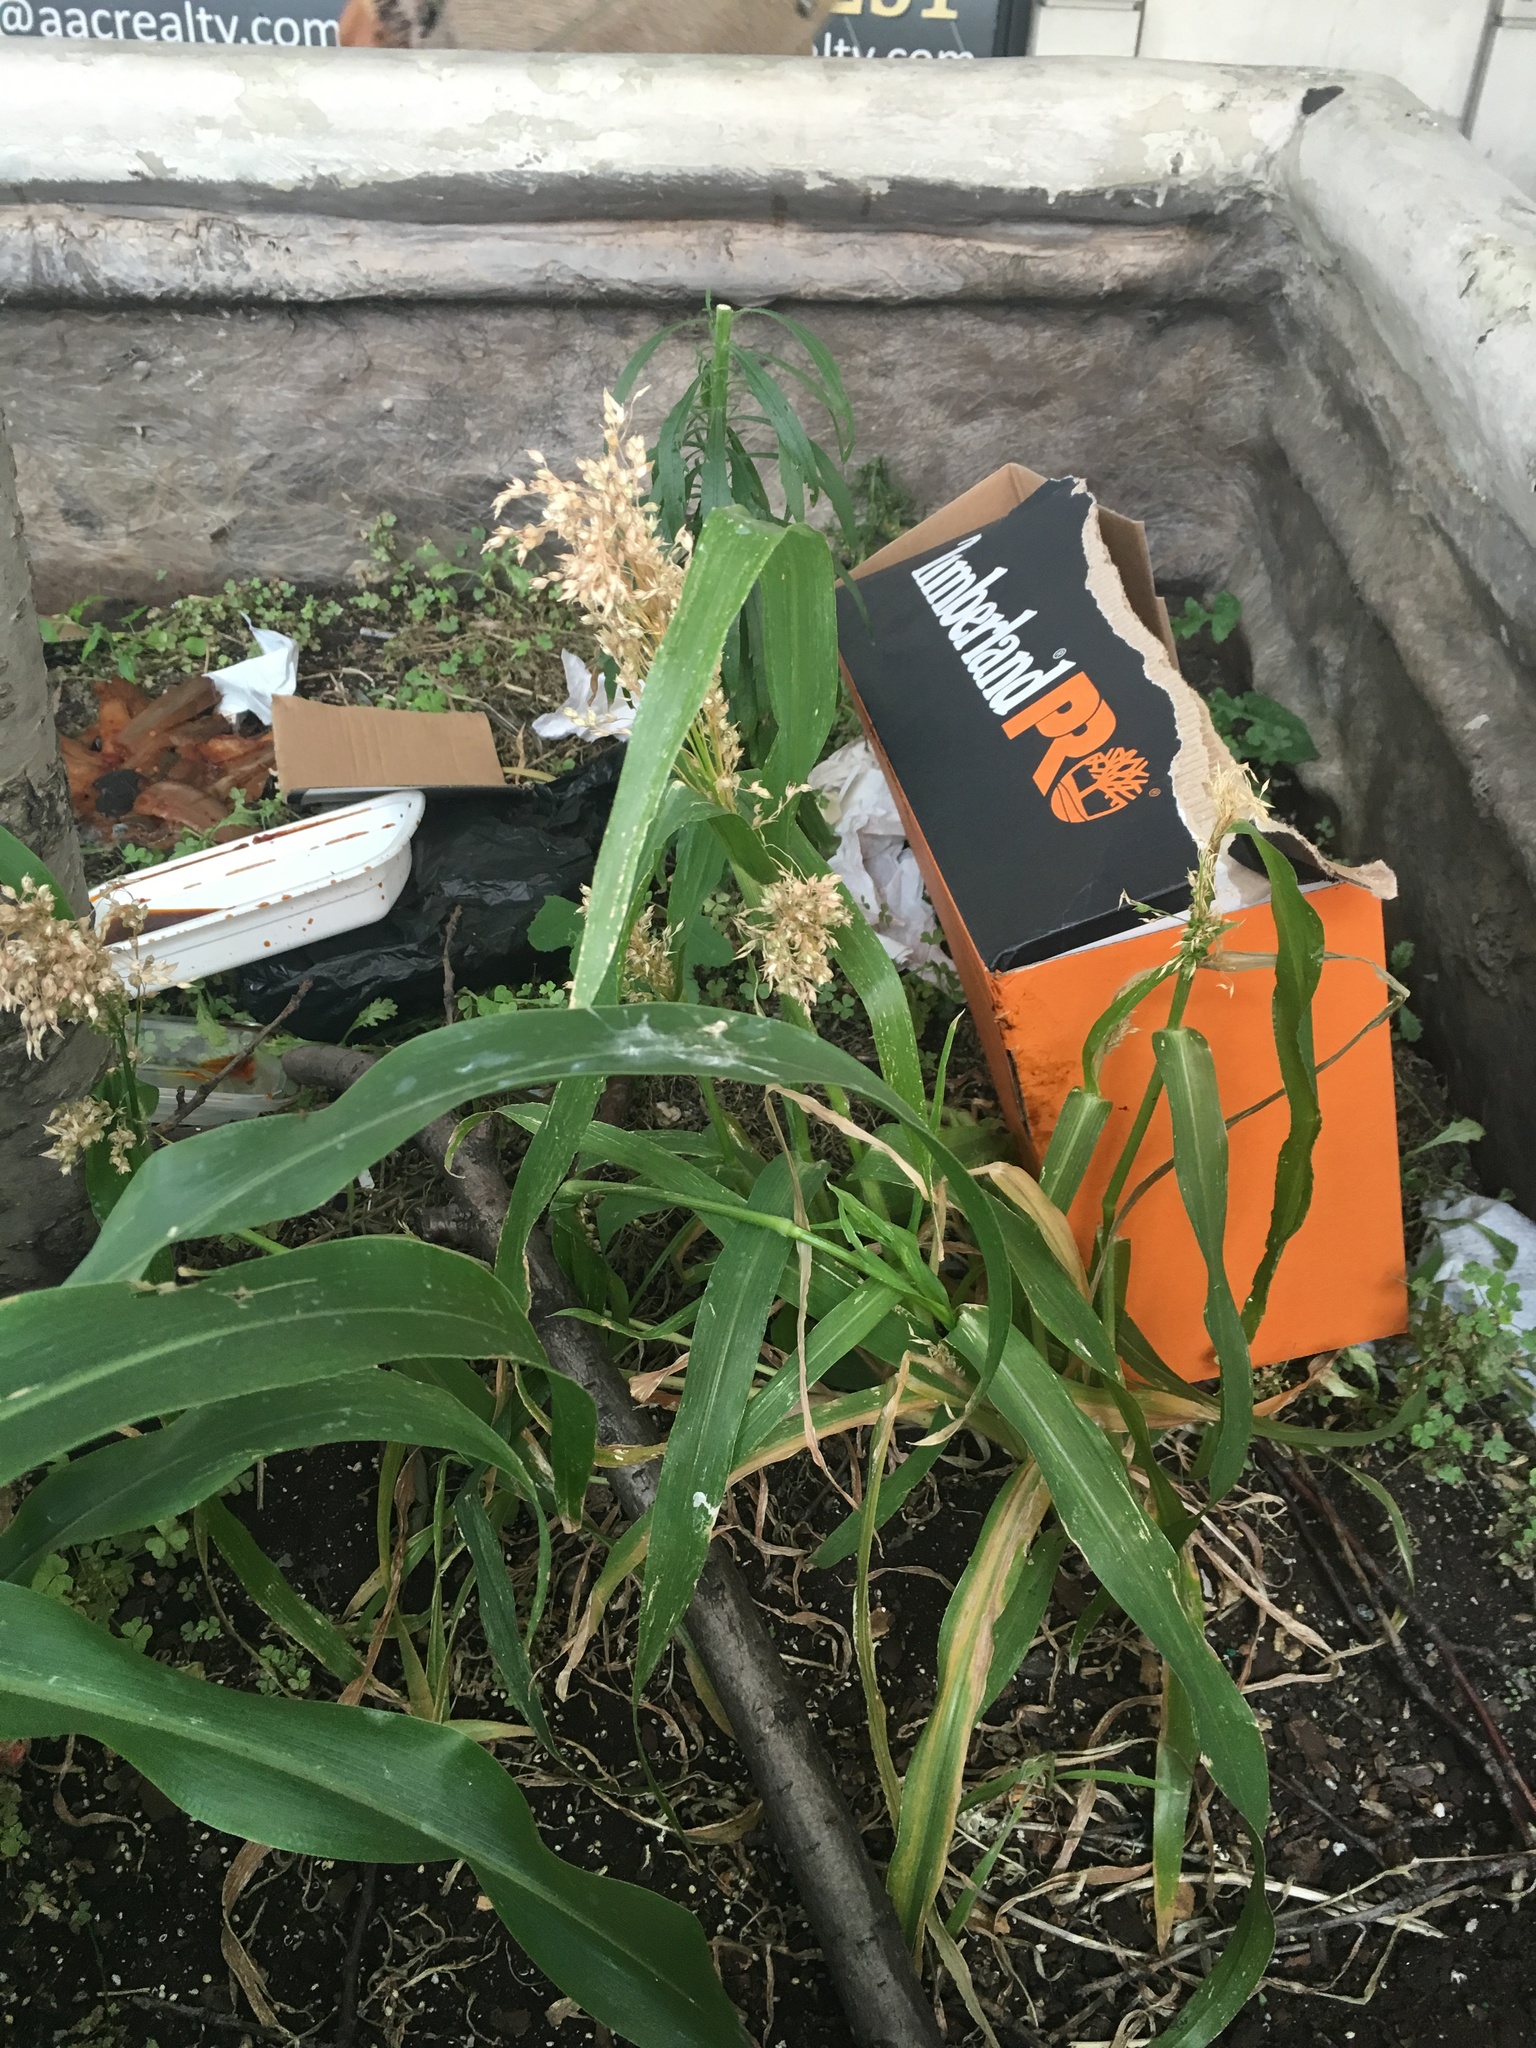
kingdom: Plantae
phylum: Tracheophyta
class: Liliopsida
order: Poales
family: Poaceae
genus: Sorghum
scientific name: Sorghum bicolor
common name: Sorghum
